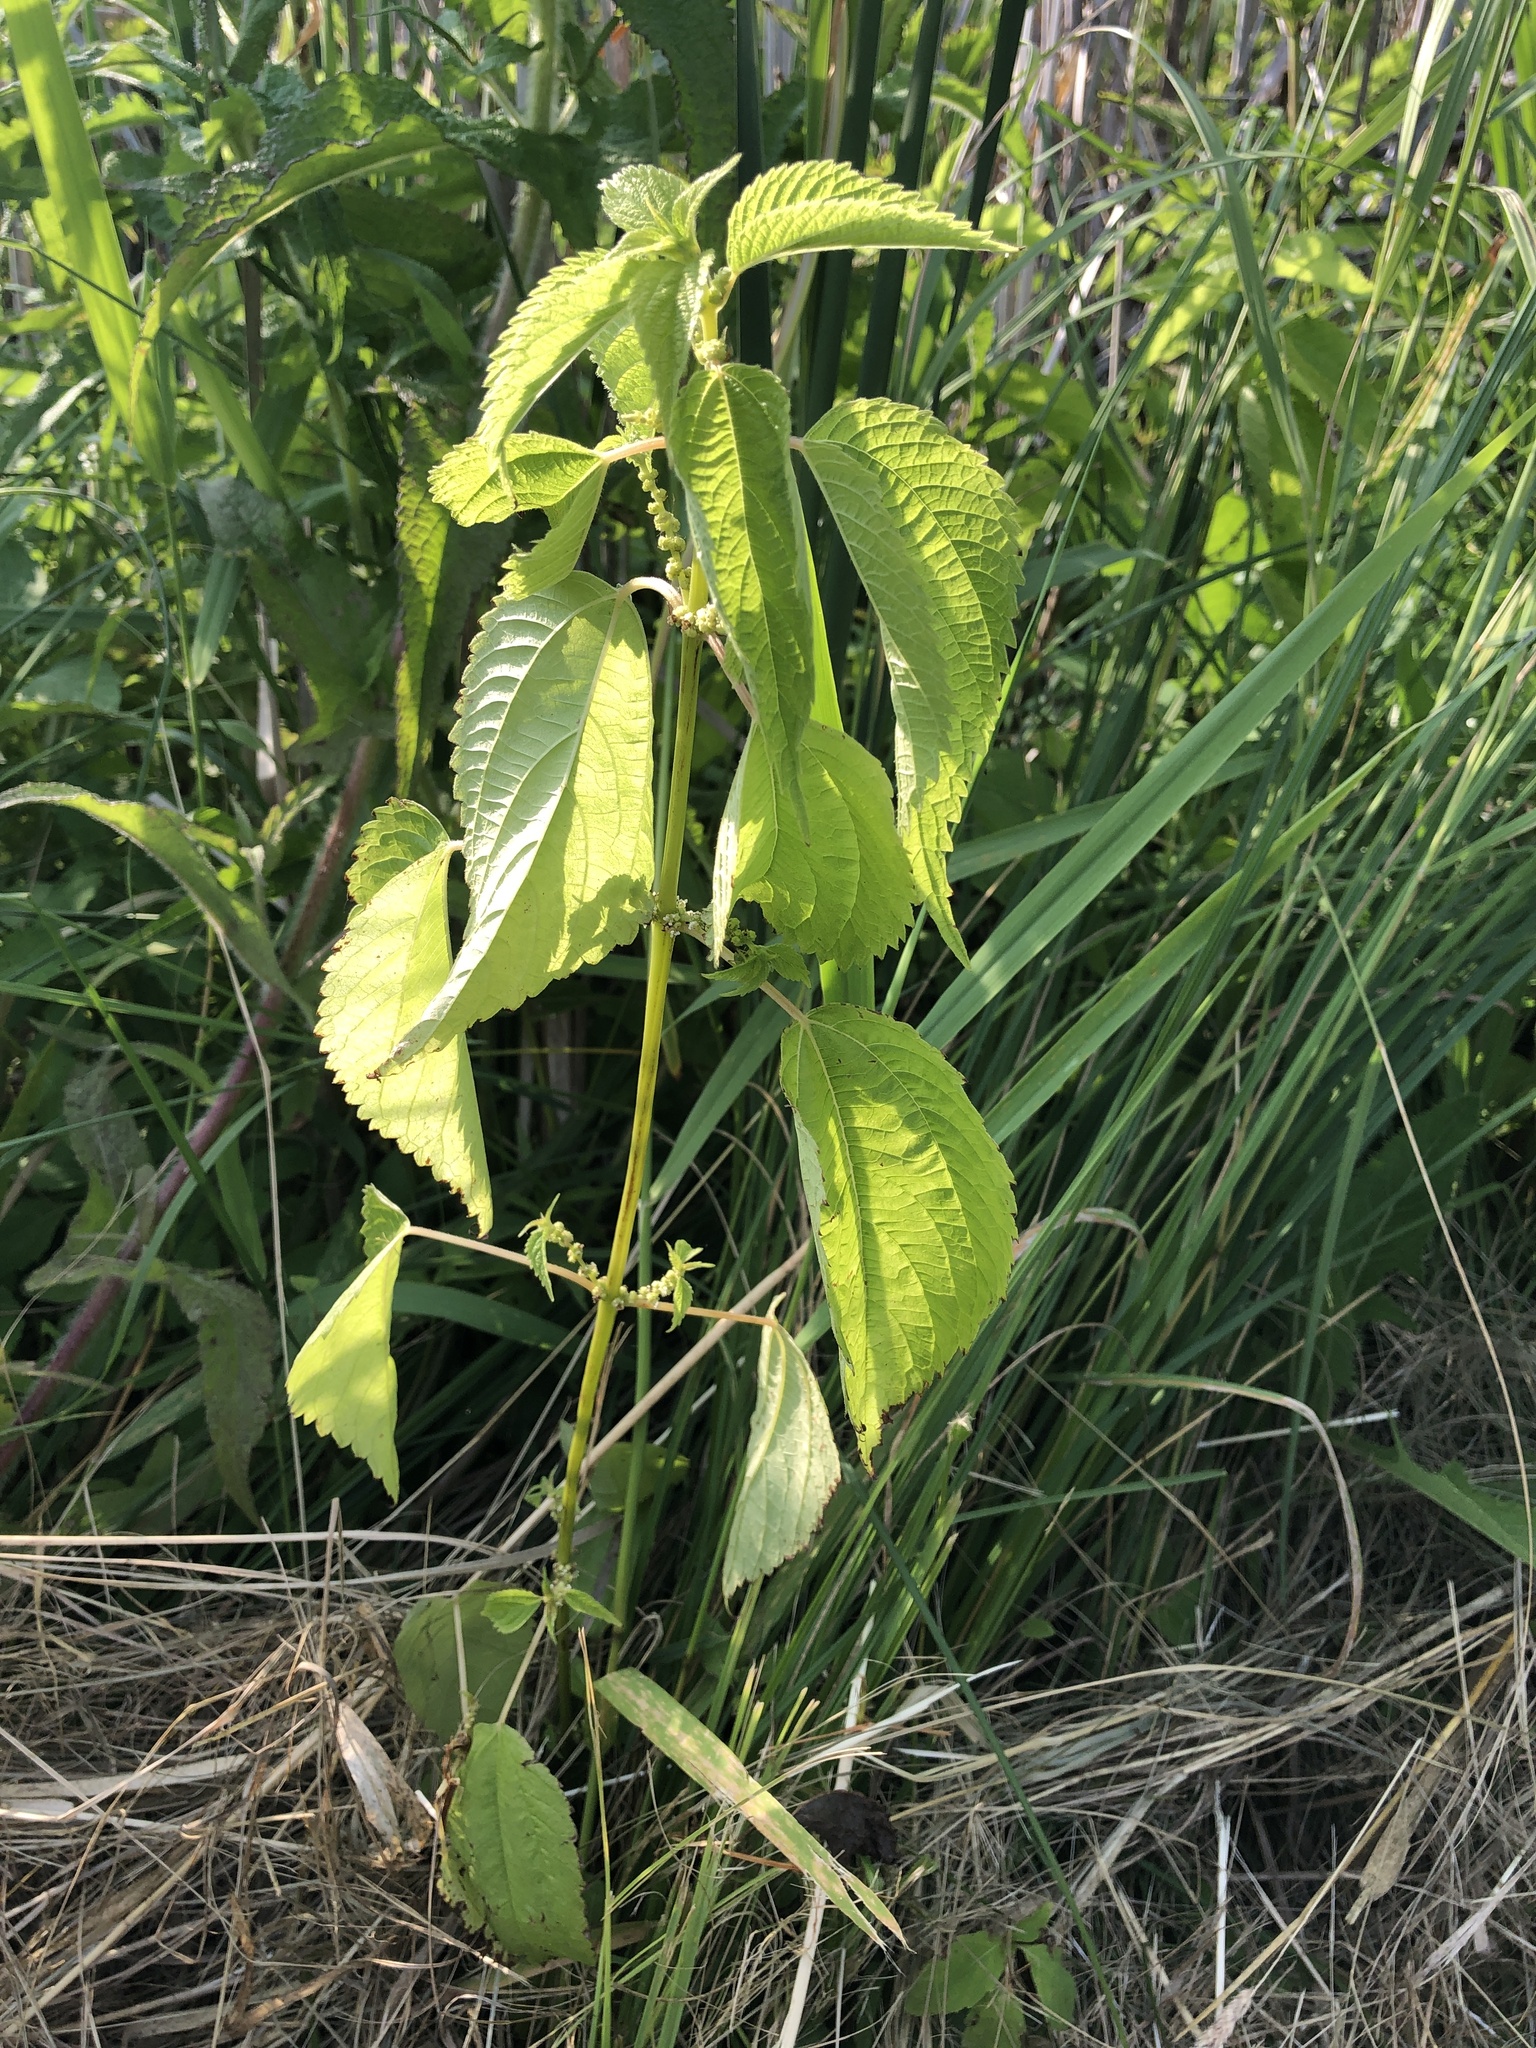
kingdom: Plantae
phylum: Tracheophyta
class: Magnoliopsida
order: Rosales
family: Urticaceae
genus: Boehmeria
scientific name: Boehmeria cylindrica
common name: Bog-hemp
